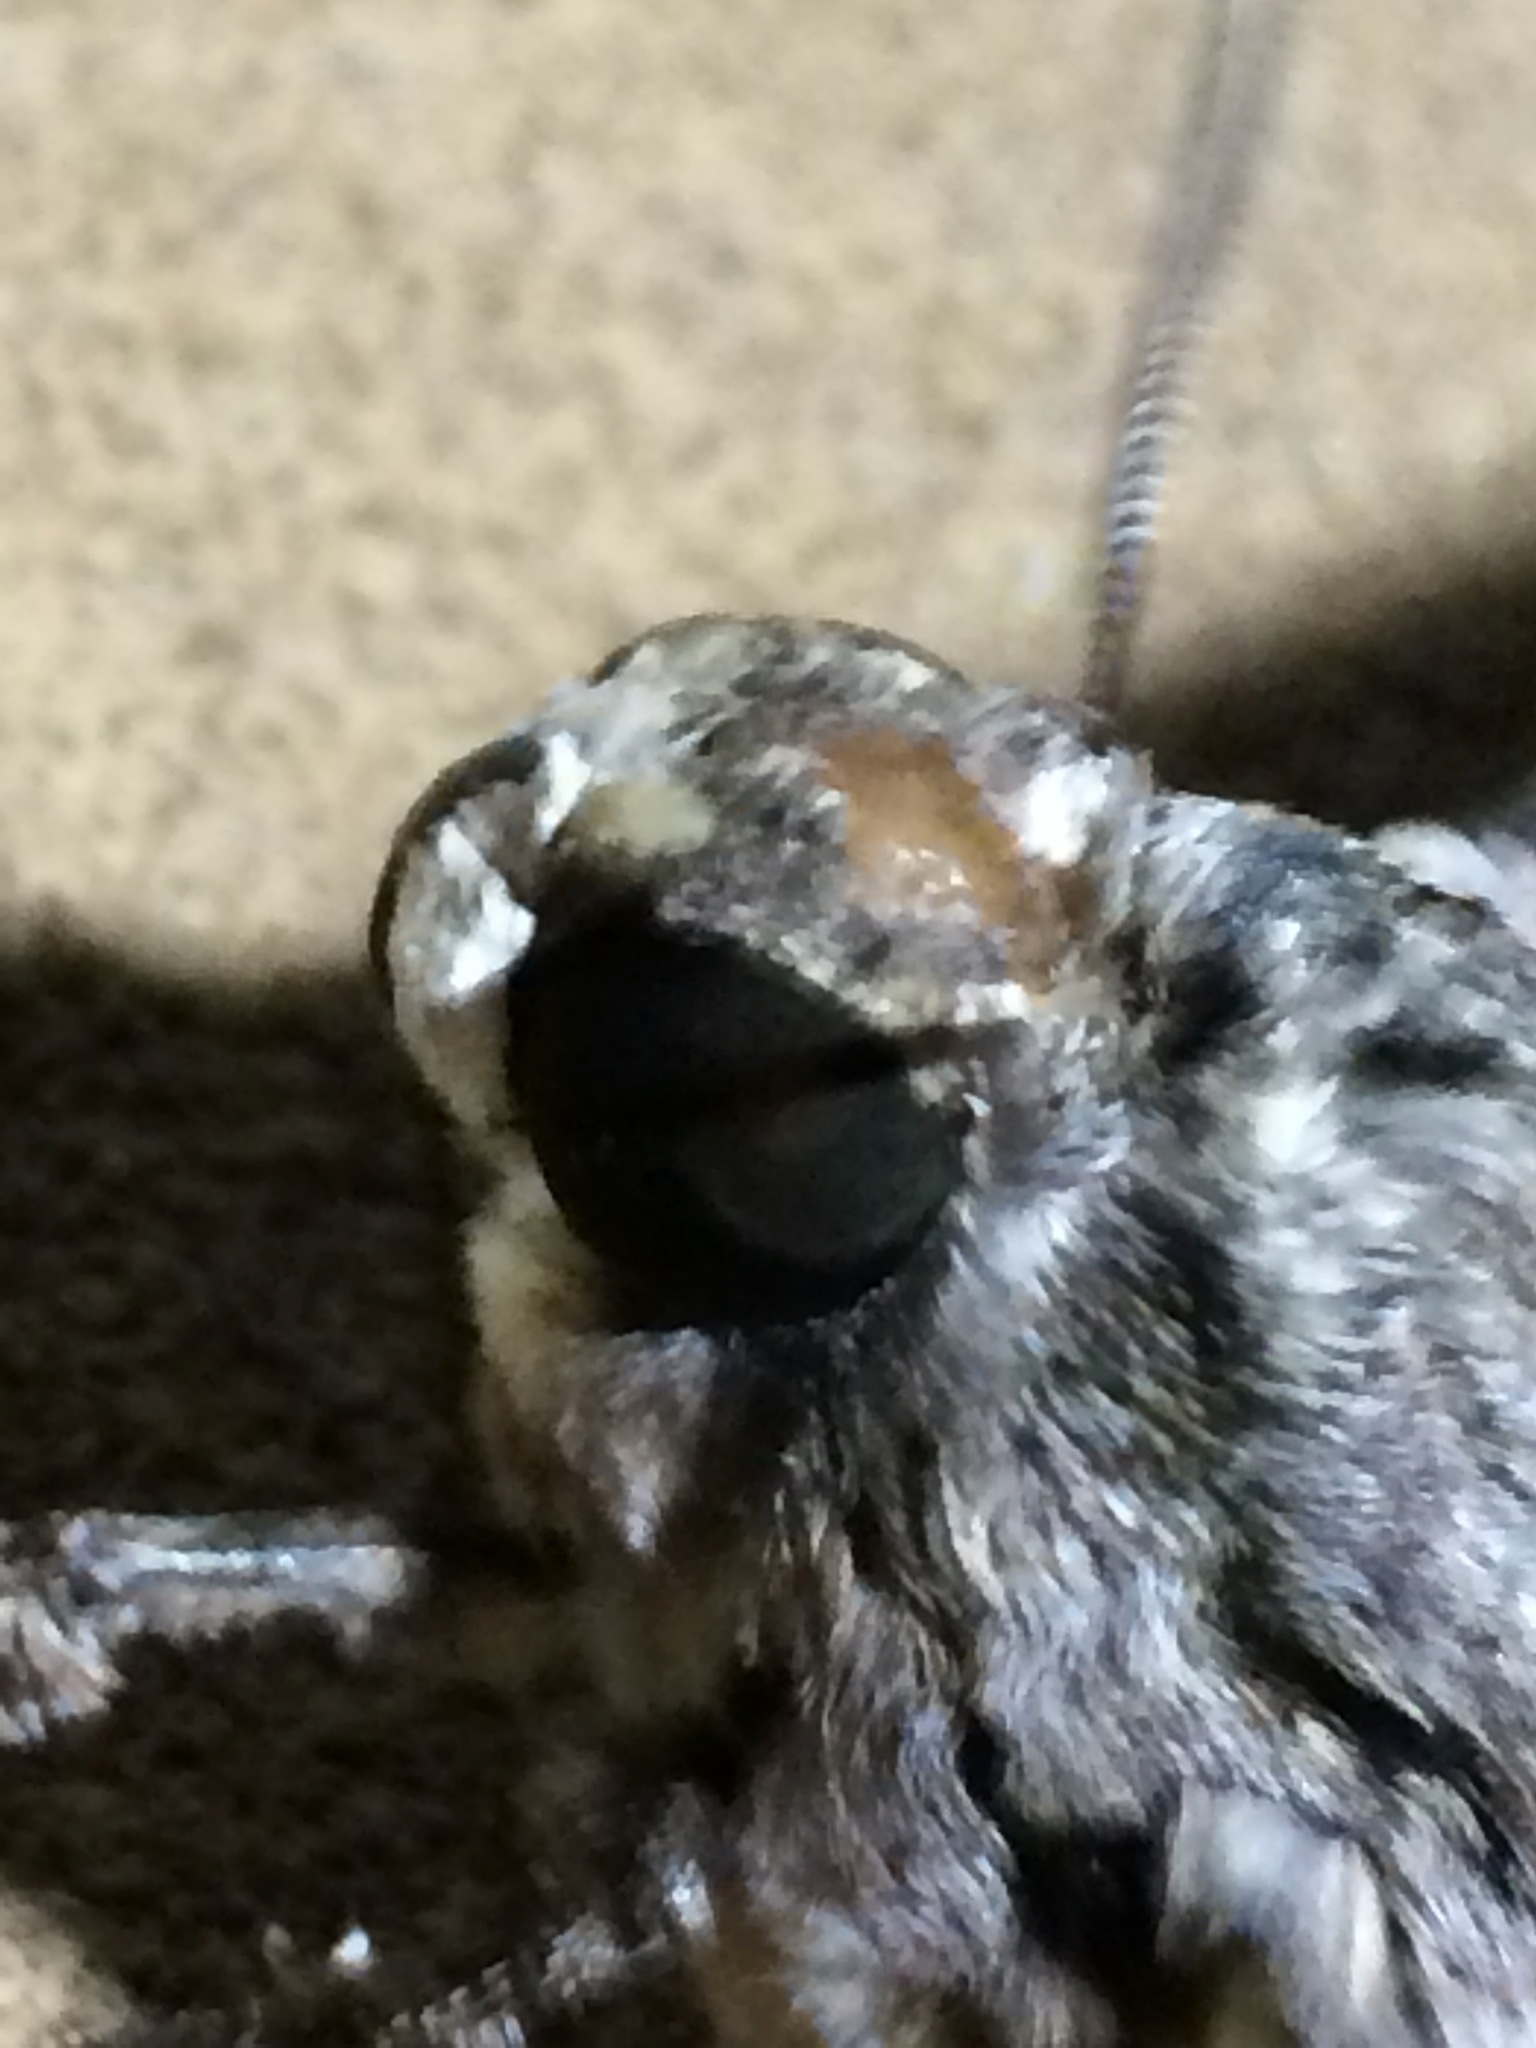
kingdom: Animalia
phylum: Arthropoda
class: Insecta
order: Lepidoptera
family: Sphingidae
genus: Agrius
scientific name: Agrius cingulata
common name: Pink-spotted hawkmoth
